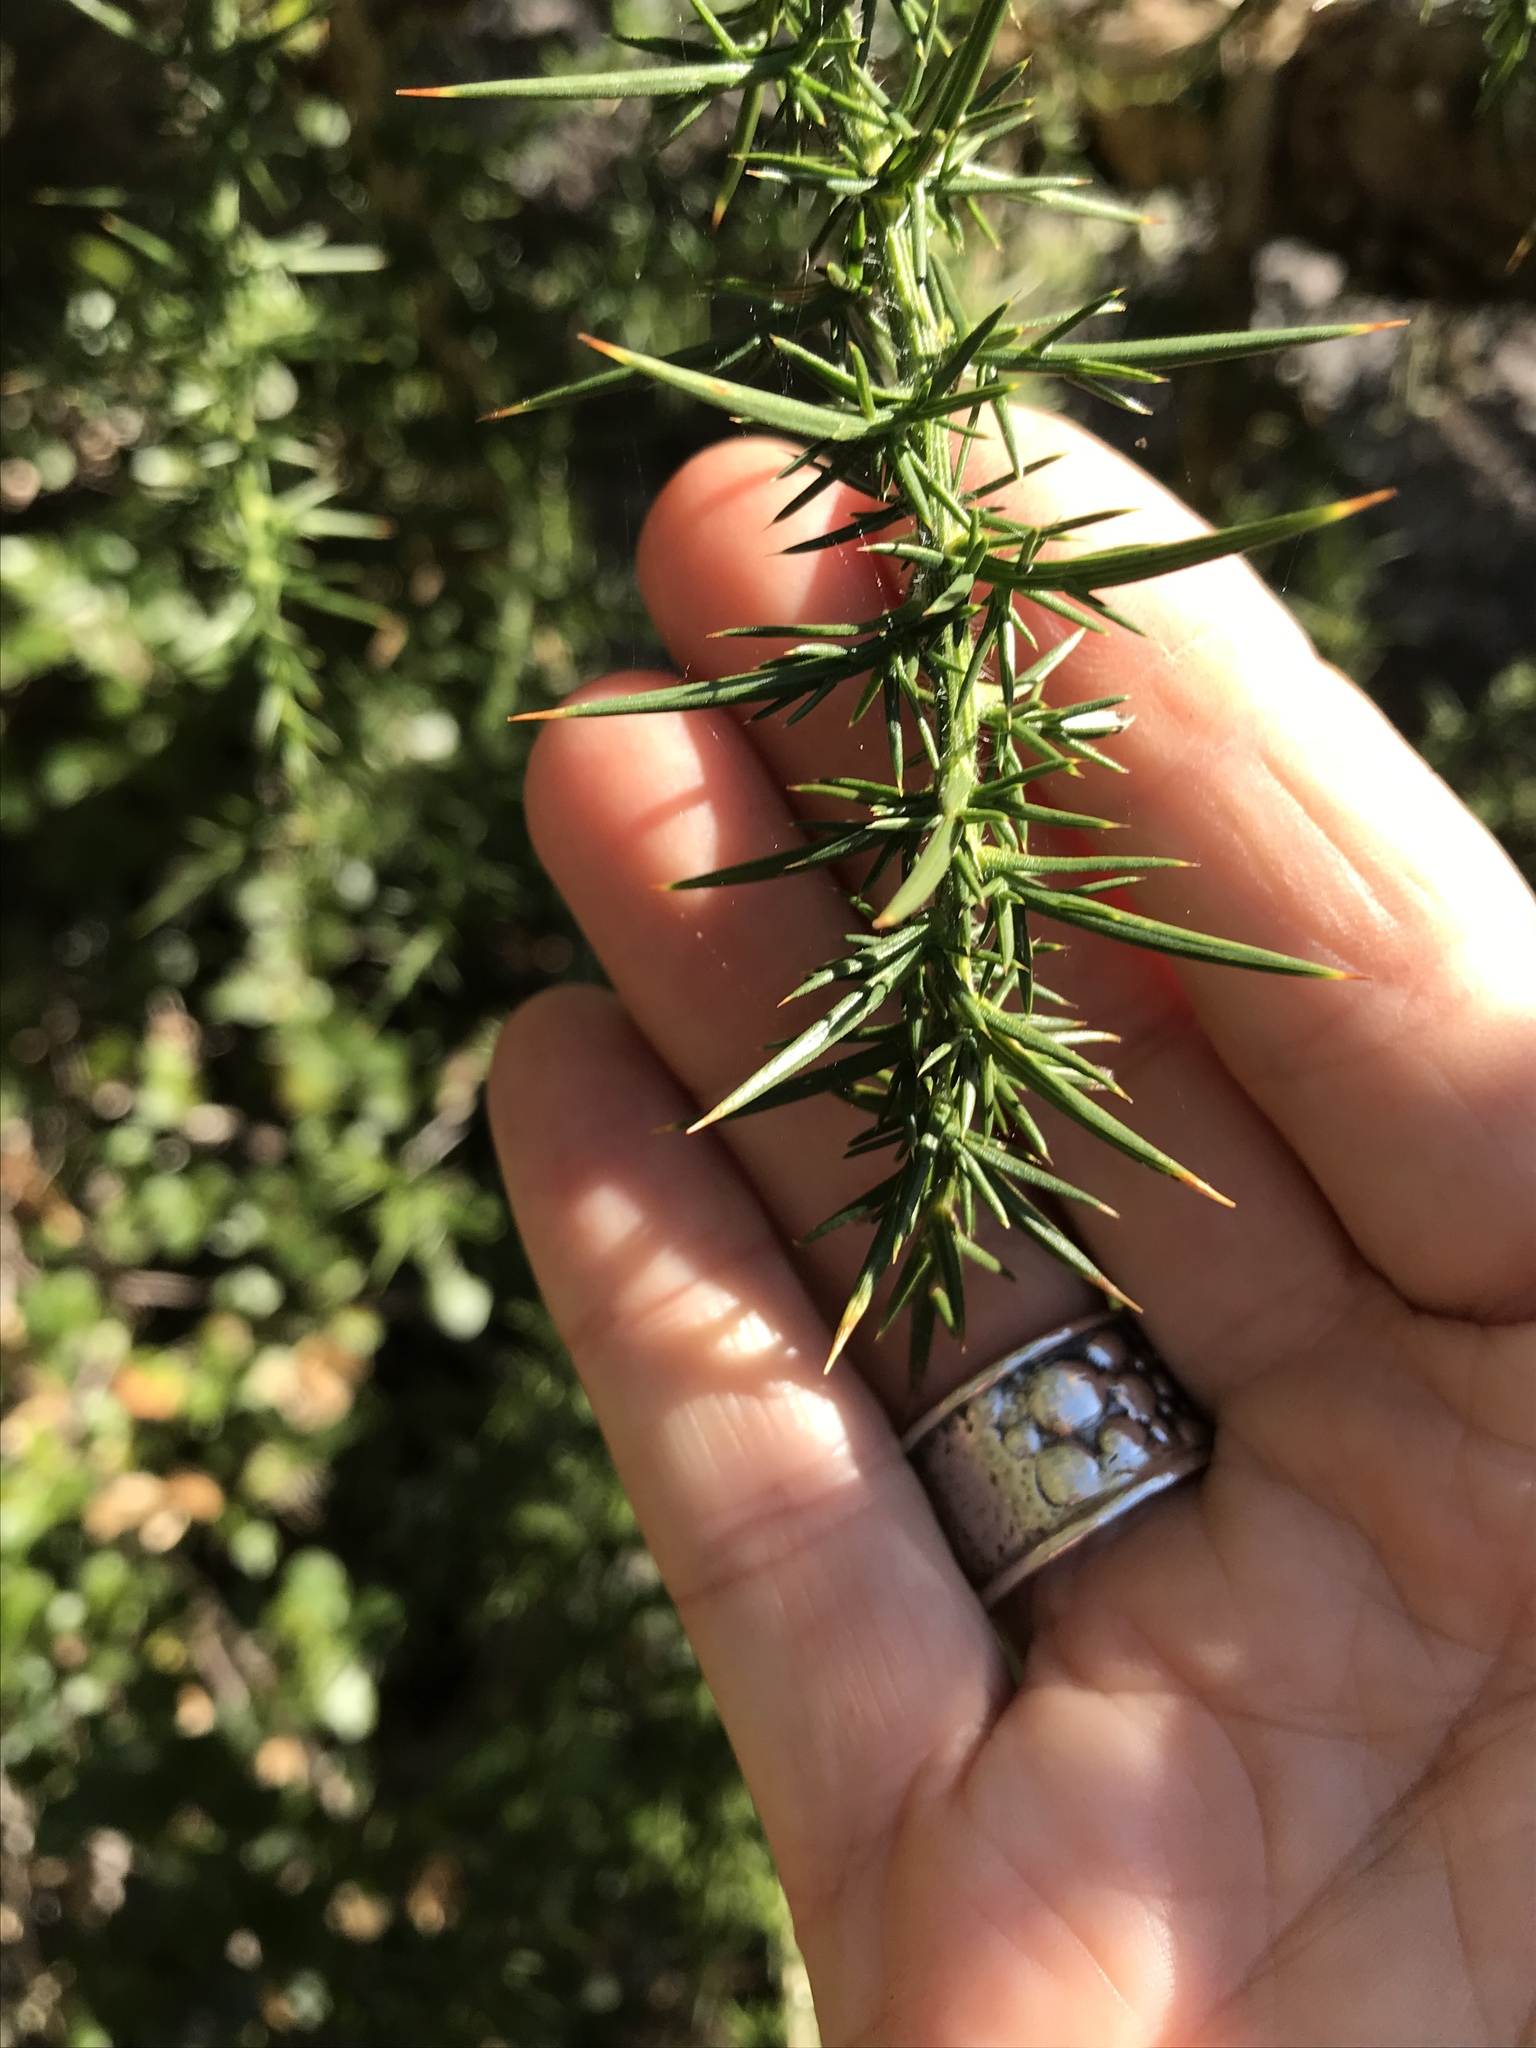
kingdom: Plantae
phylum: Tracheophyta
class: Magnoliopsida
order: Fabales
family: Fabaceae
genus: Ulex
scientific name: Ulex europaeus
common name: Common gorse
